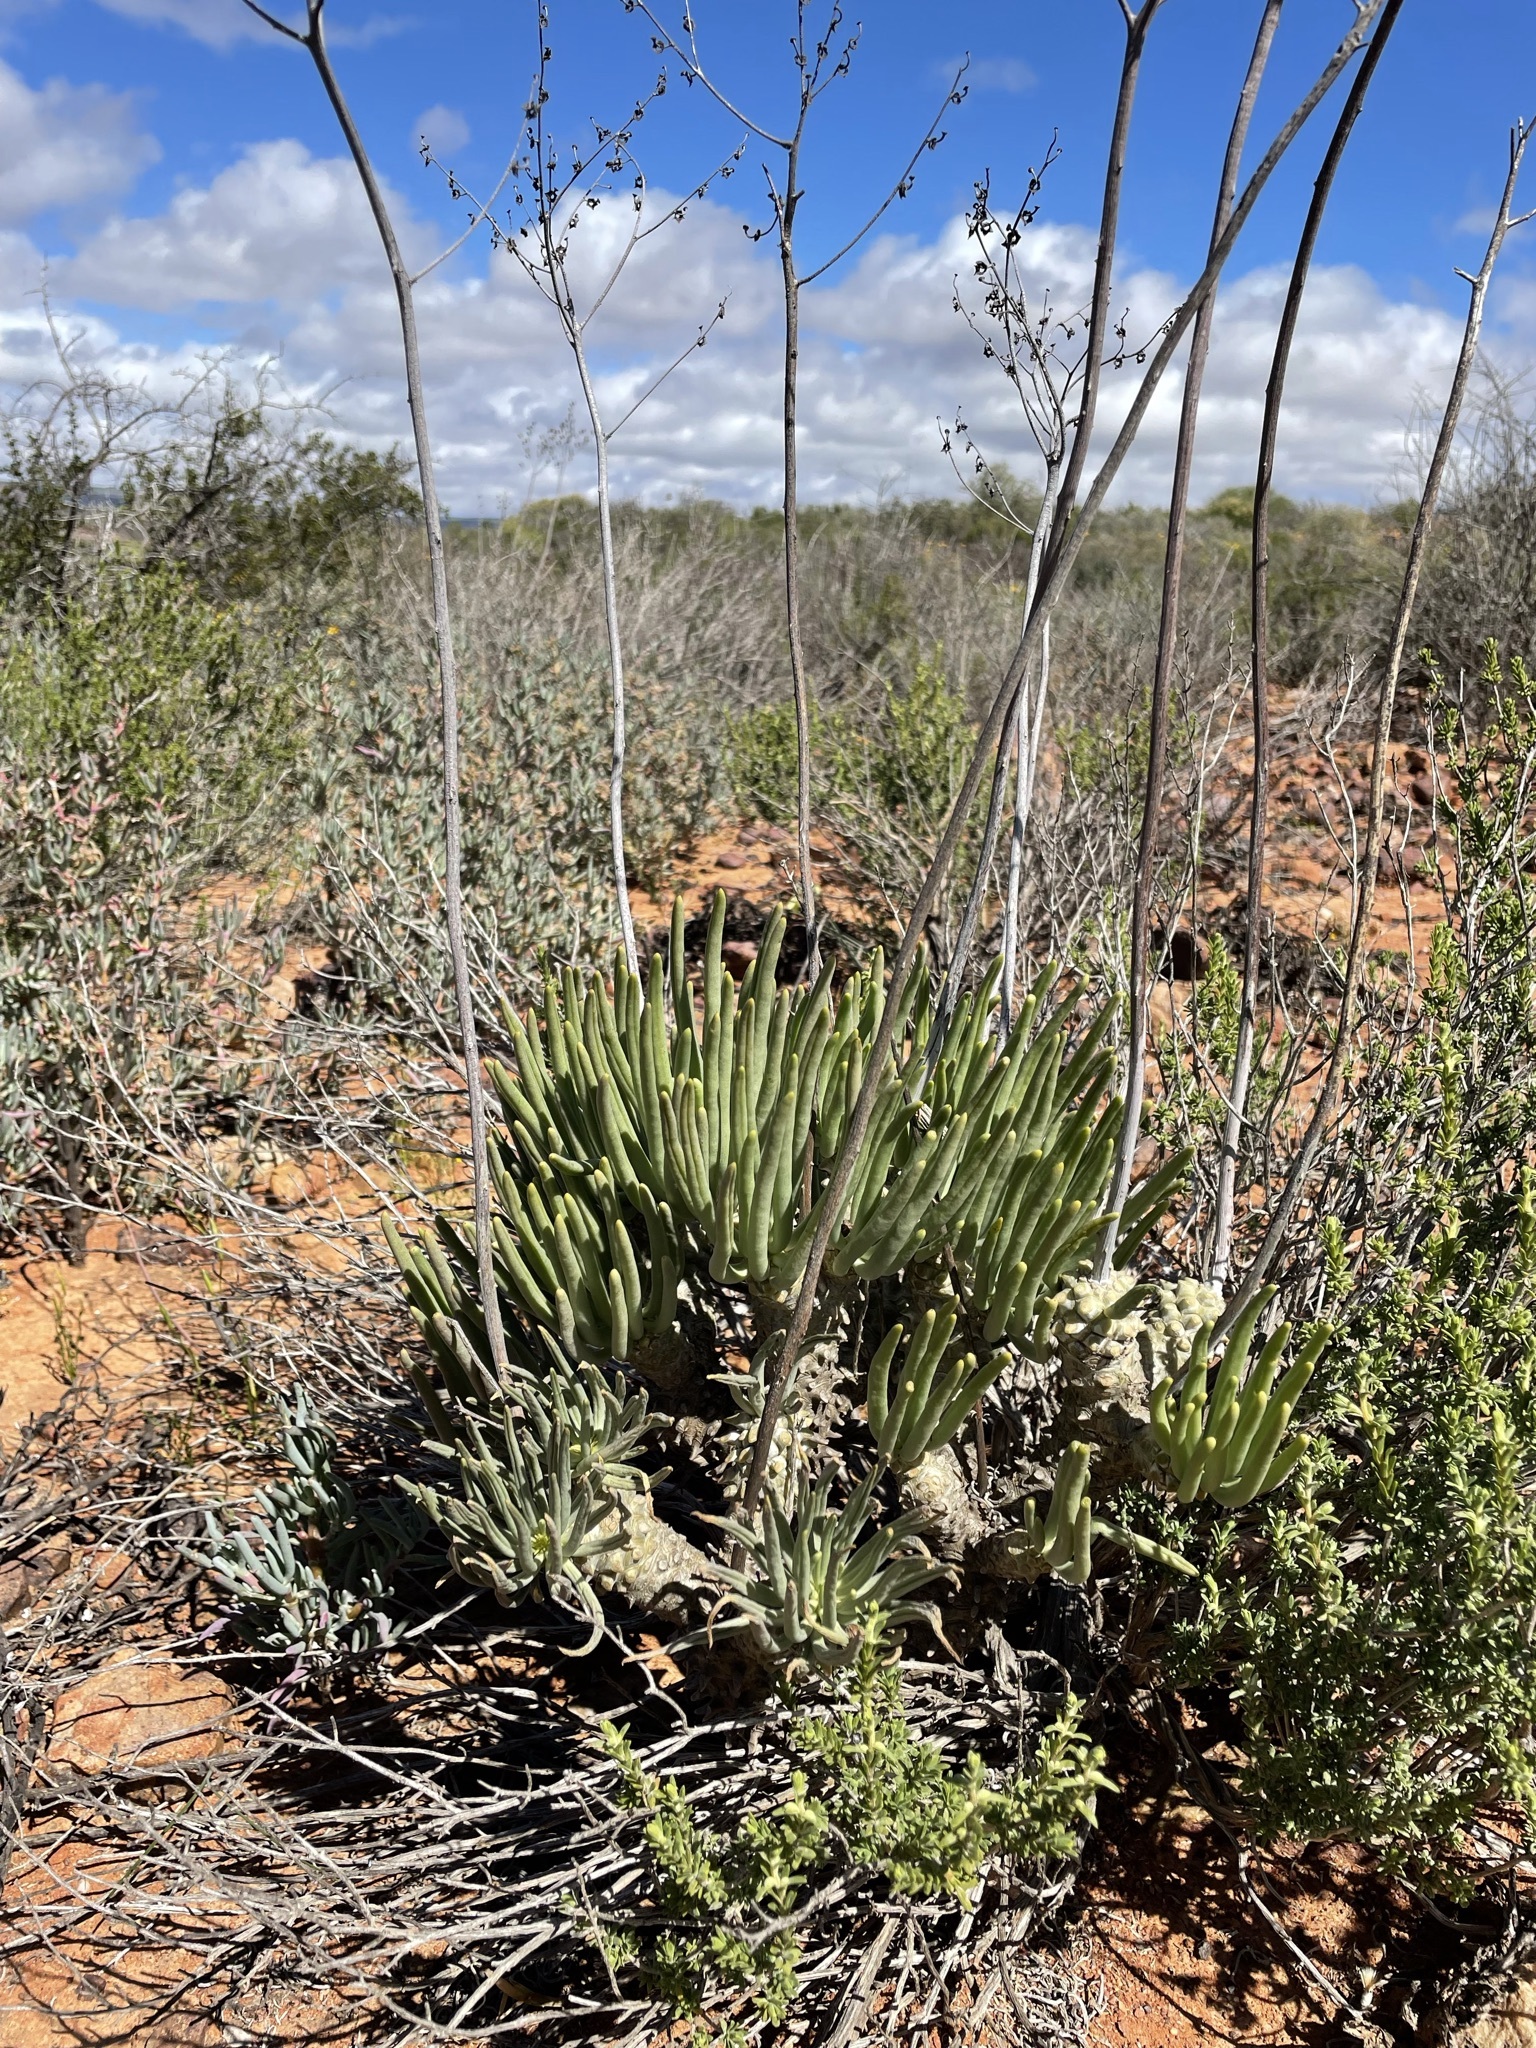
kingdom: Plantae
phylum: Tracheophyta
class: Magnoliopsida
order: Saxifragales
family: Crassulaceae
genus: Tylecodon
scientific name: Tylecodon wallichii
